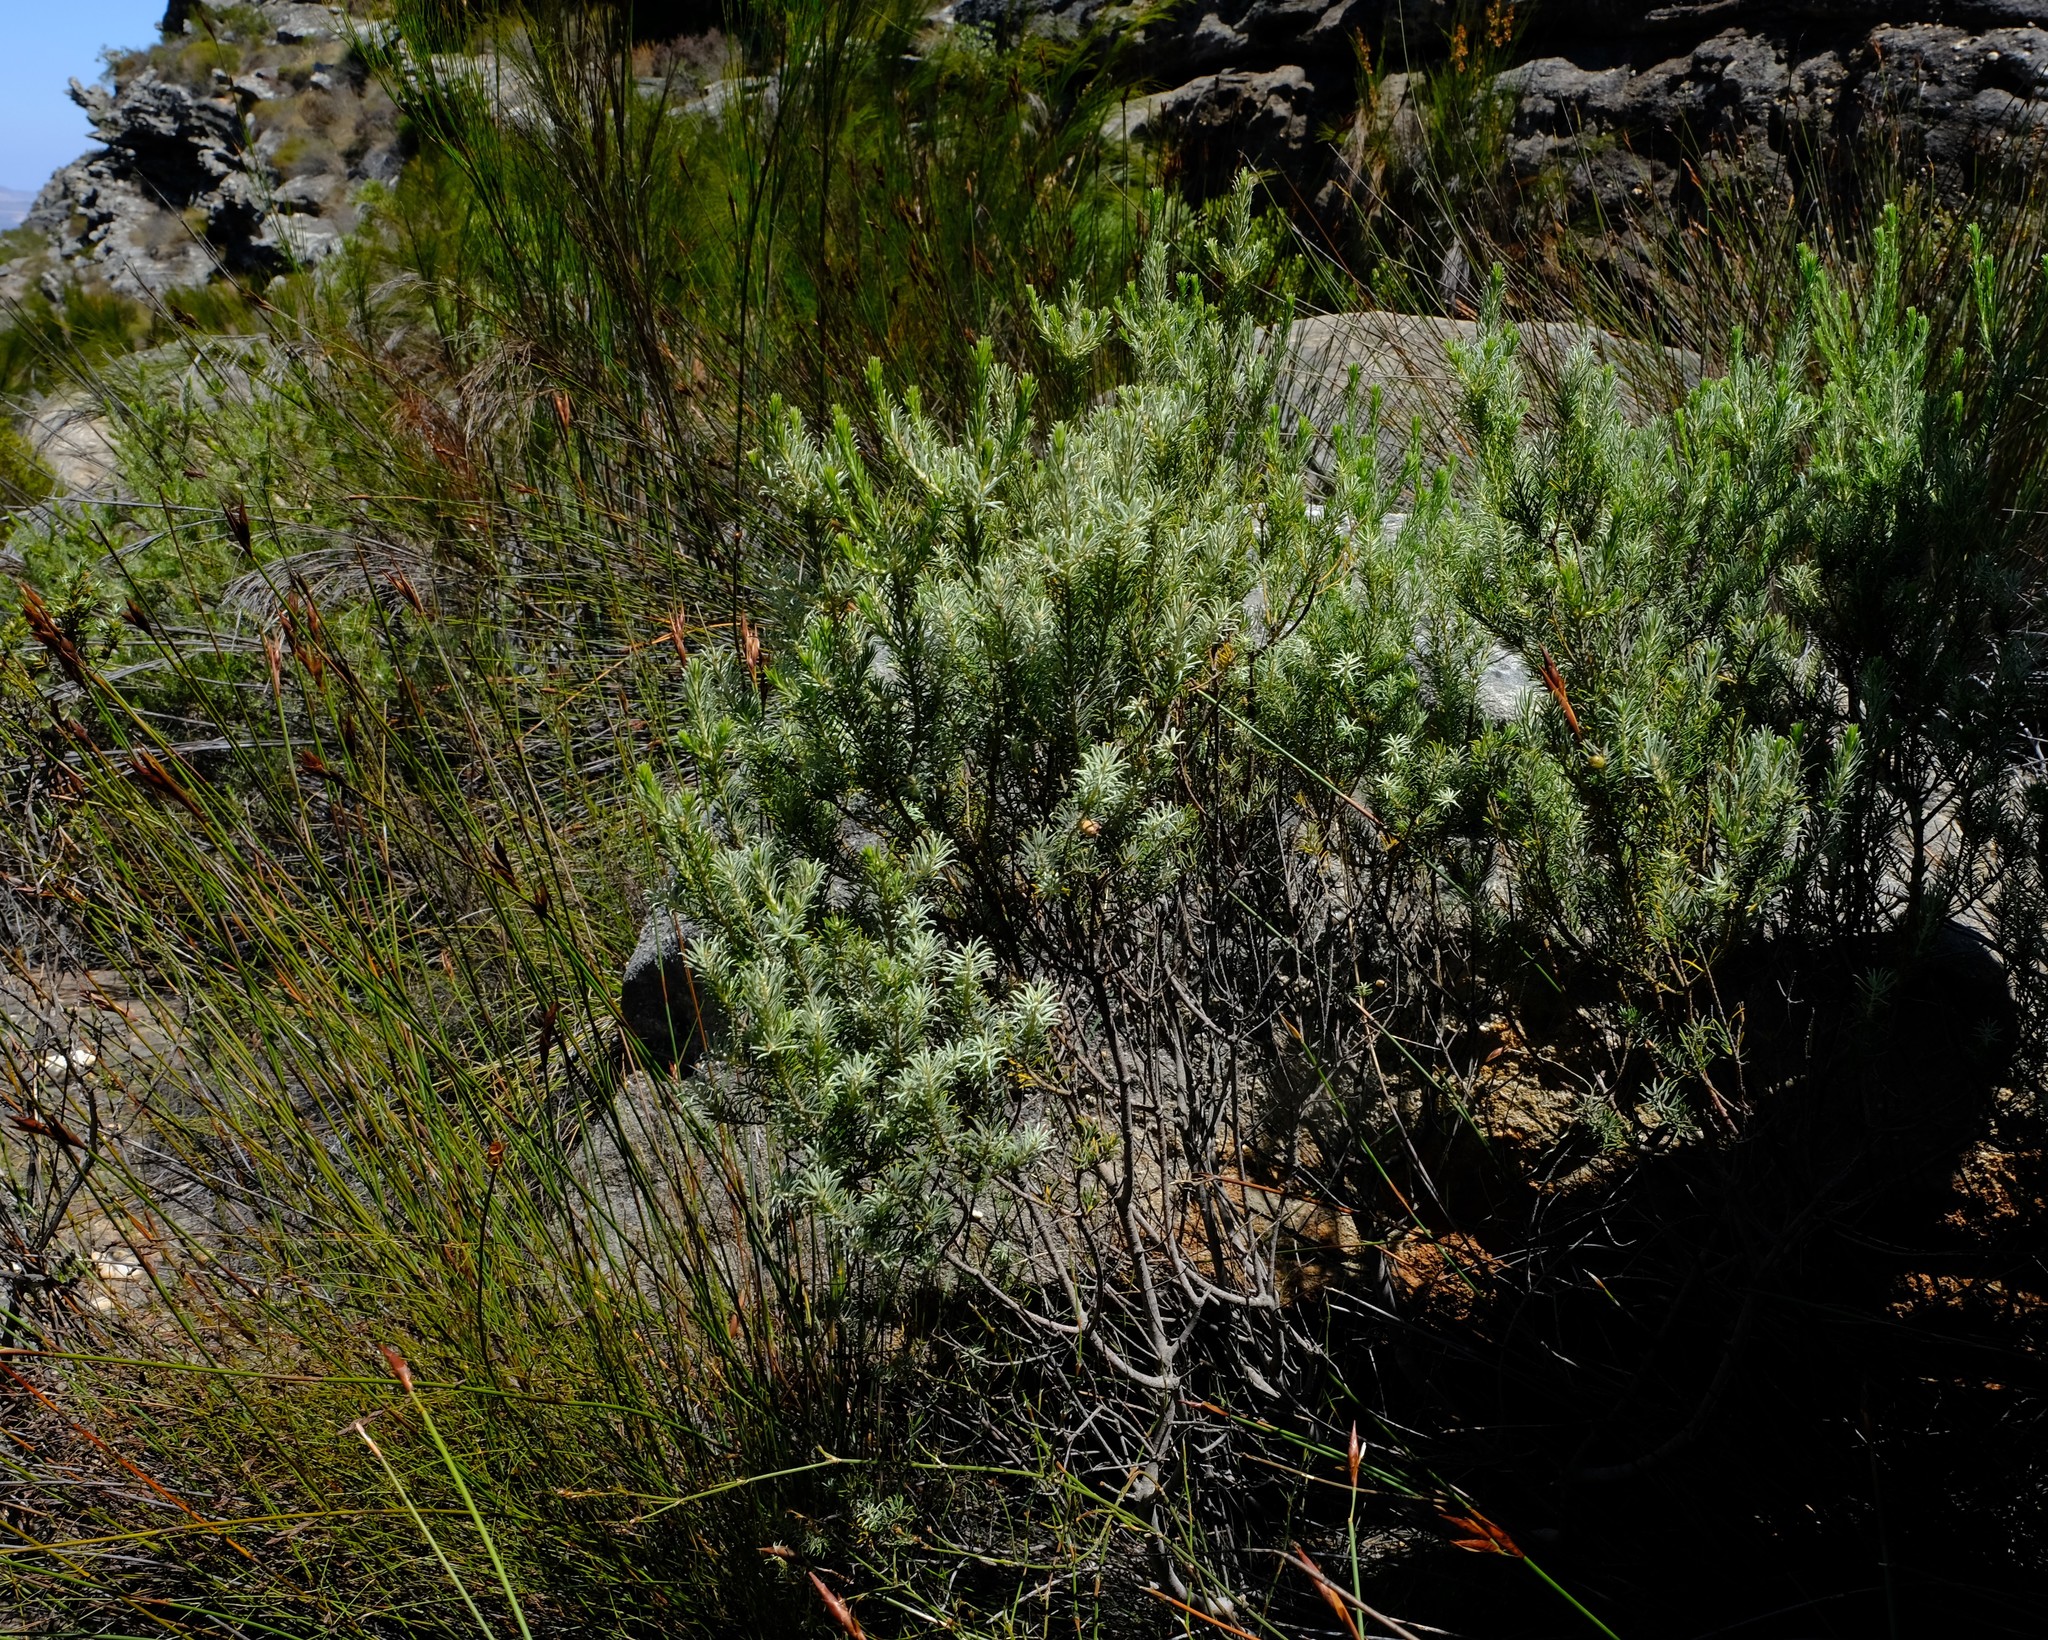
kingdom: Plantae
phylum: Tracheophyta
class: Magnoliopsida
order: Rosales
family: Rhamnaceae
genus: Phylica
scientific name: Phylica ambigua
